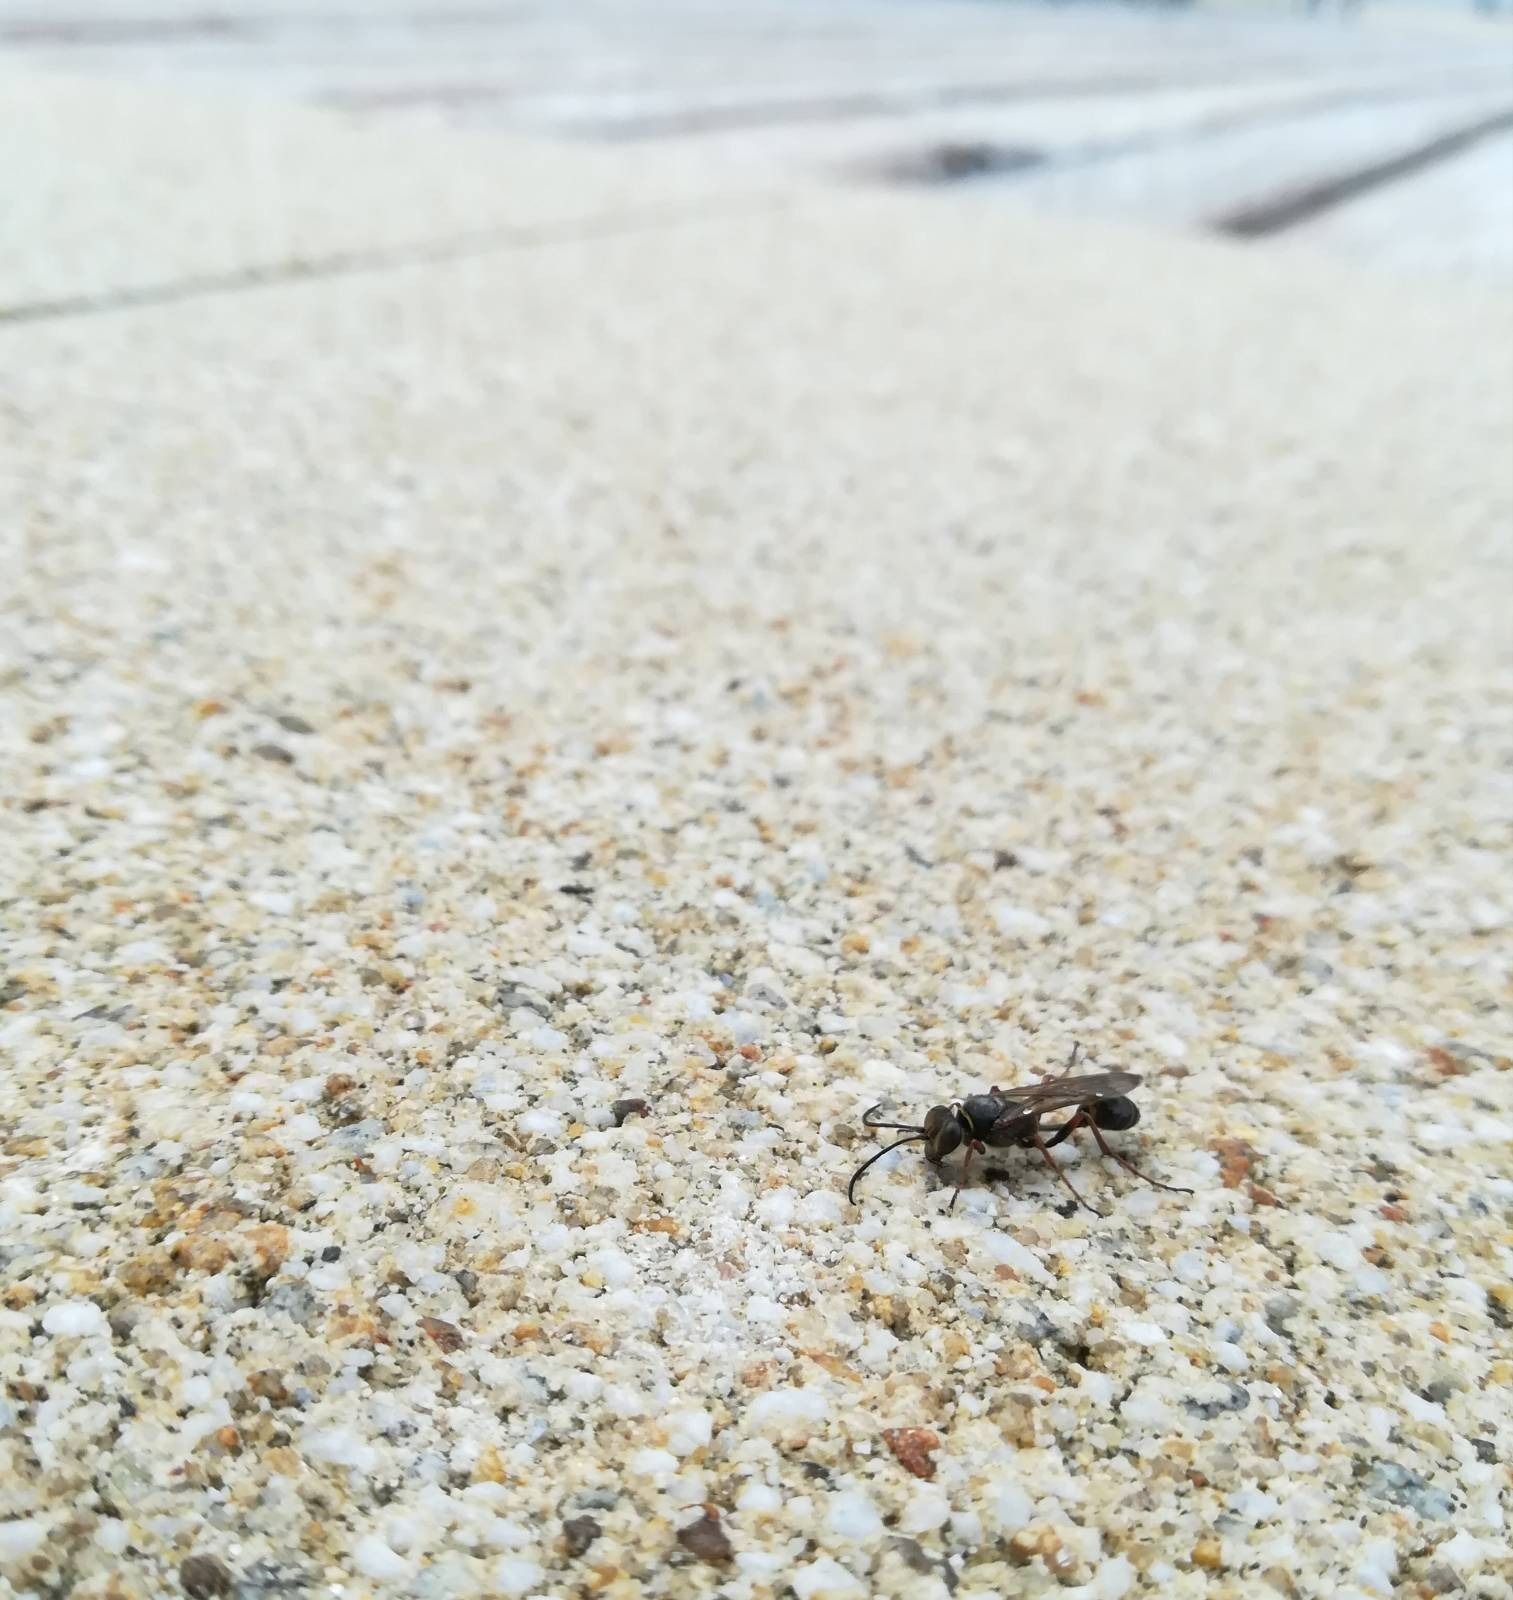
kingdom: Animalia
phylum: Arthropoda
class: Insecta
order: Hymenoptera
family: Sphecidae
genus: Sceliphron
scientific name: Sceliphron curvatum
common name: Pèlopèe
